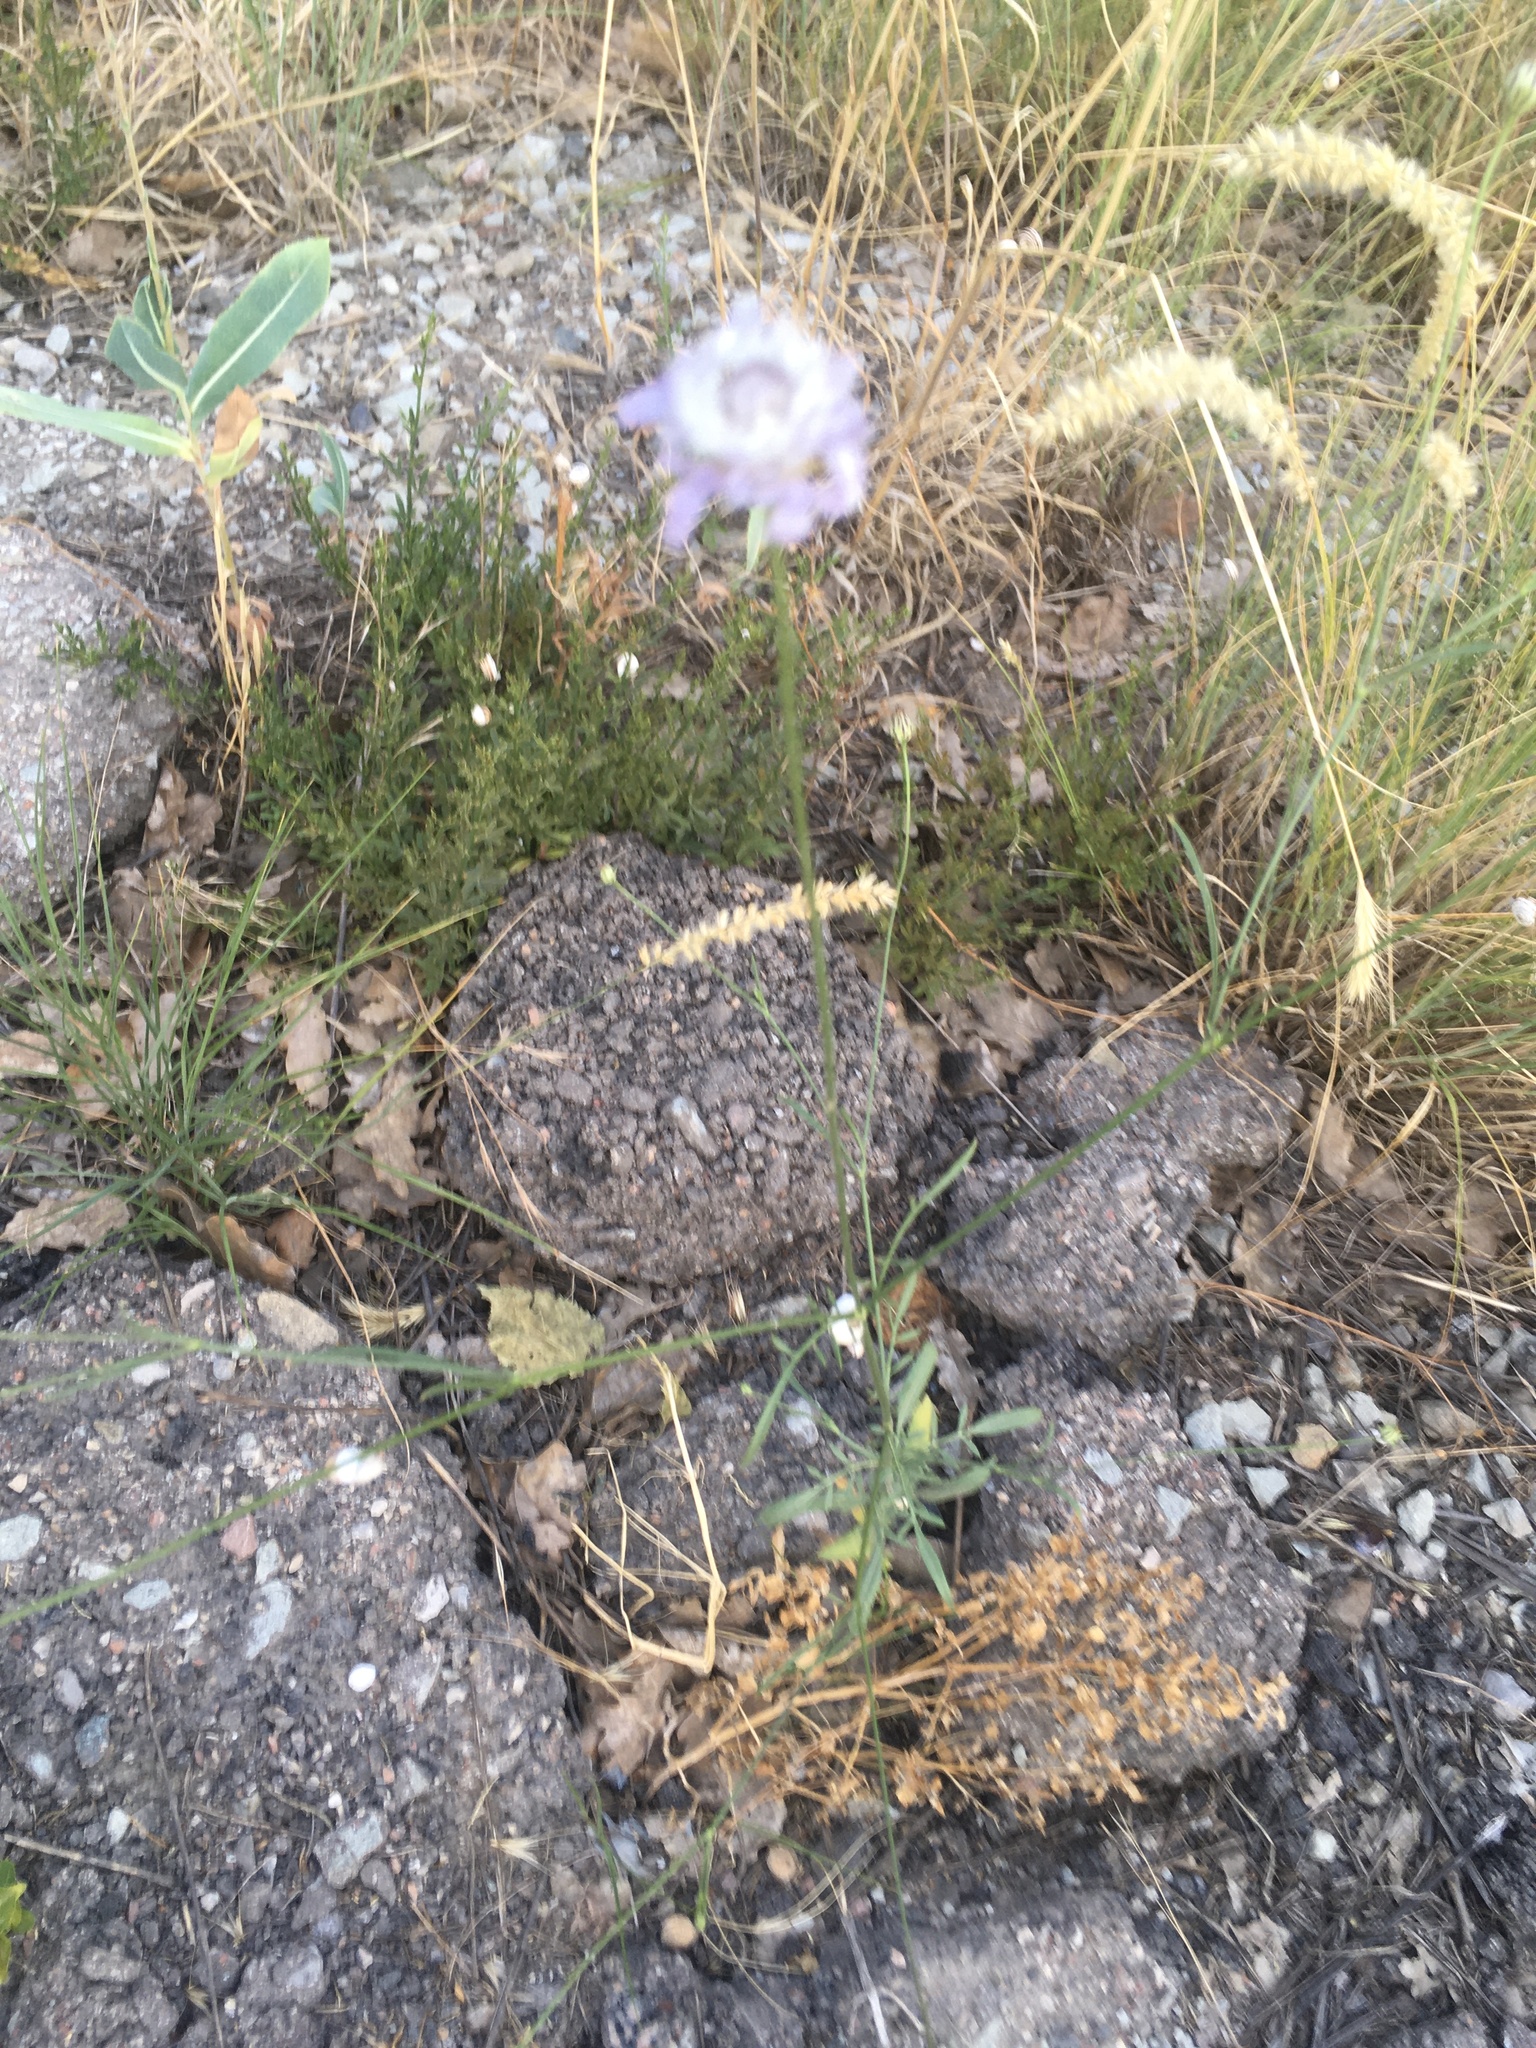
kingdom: Plantae
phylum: Tracheophyta
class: Magnoliopsida
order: Dipsacales
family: Caprifoliaceae
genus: Scabiosa
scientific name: Scabiosa columbaria
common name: Small scabious
